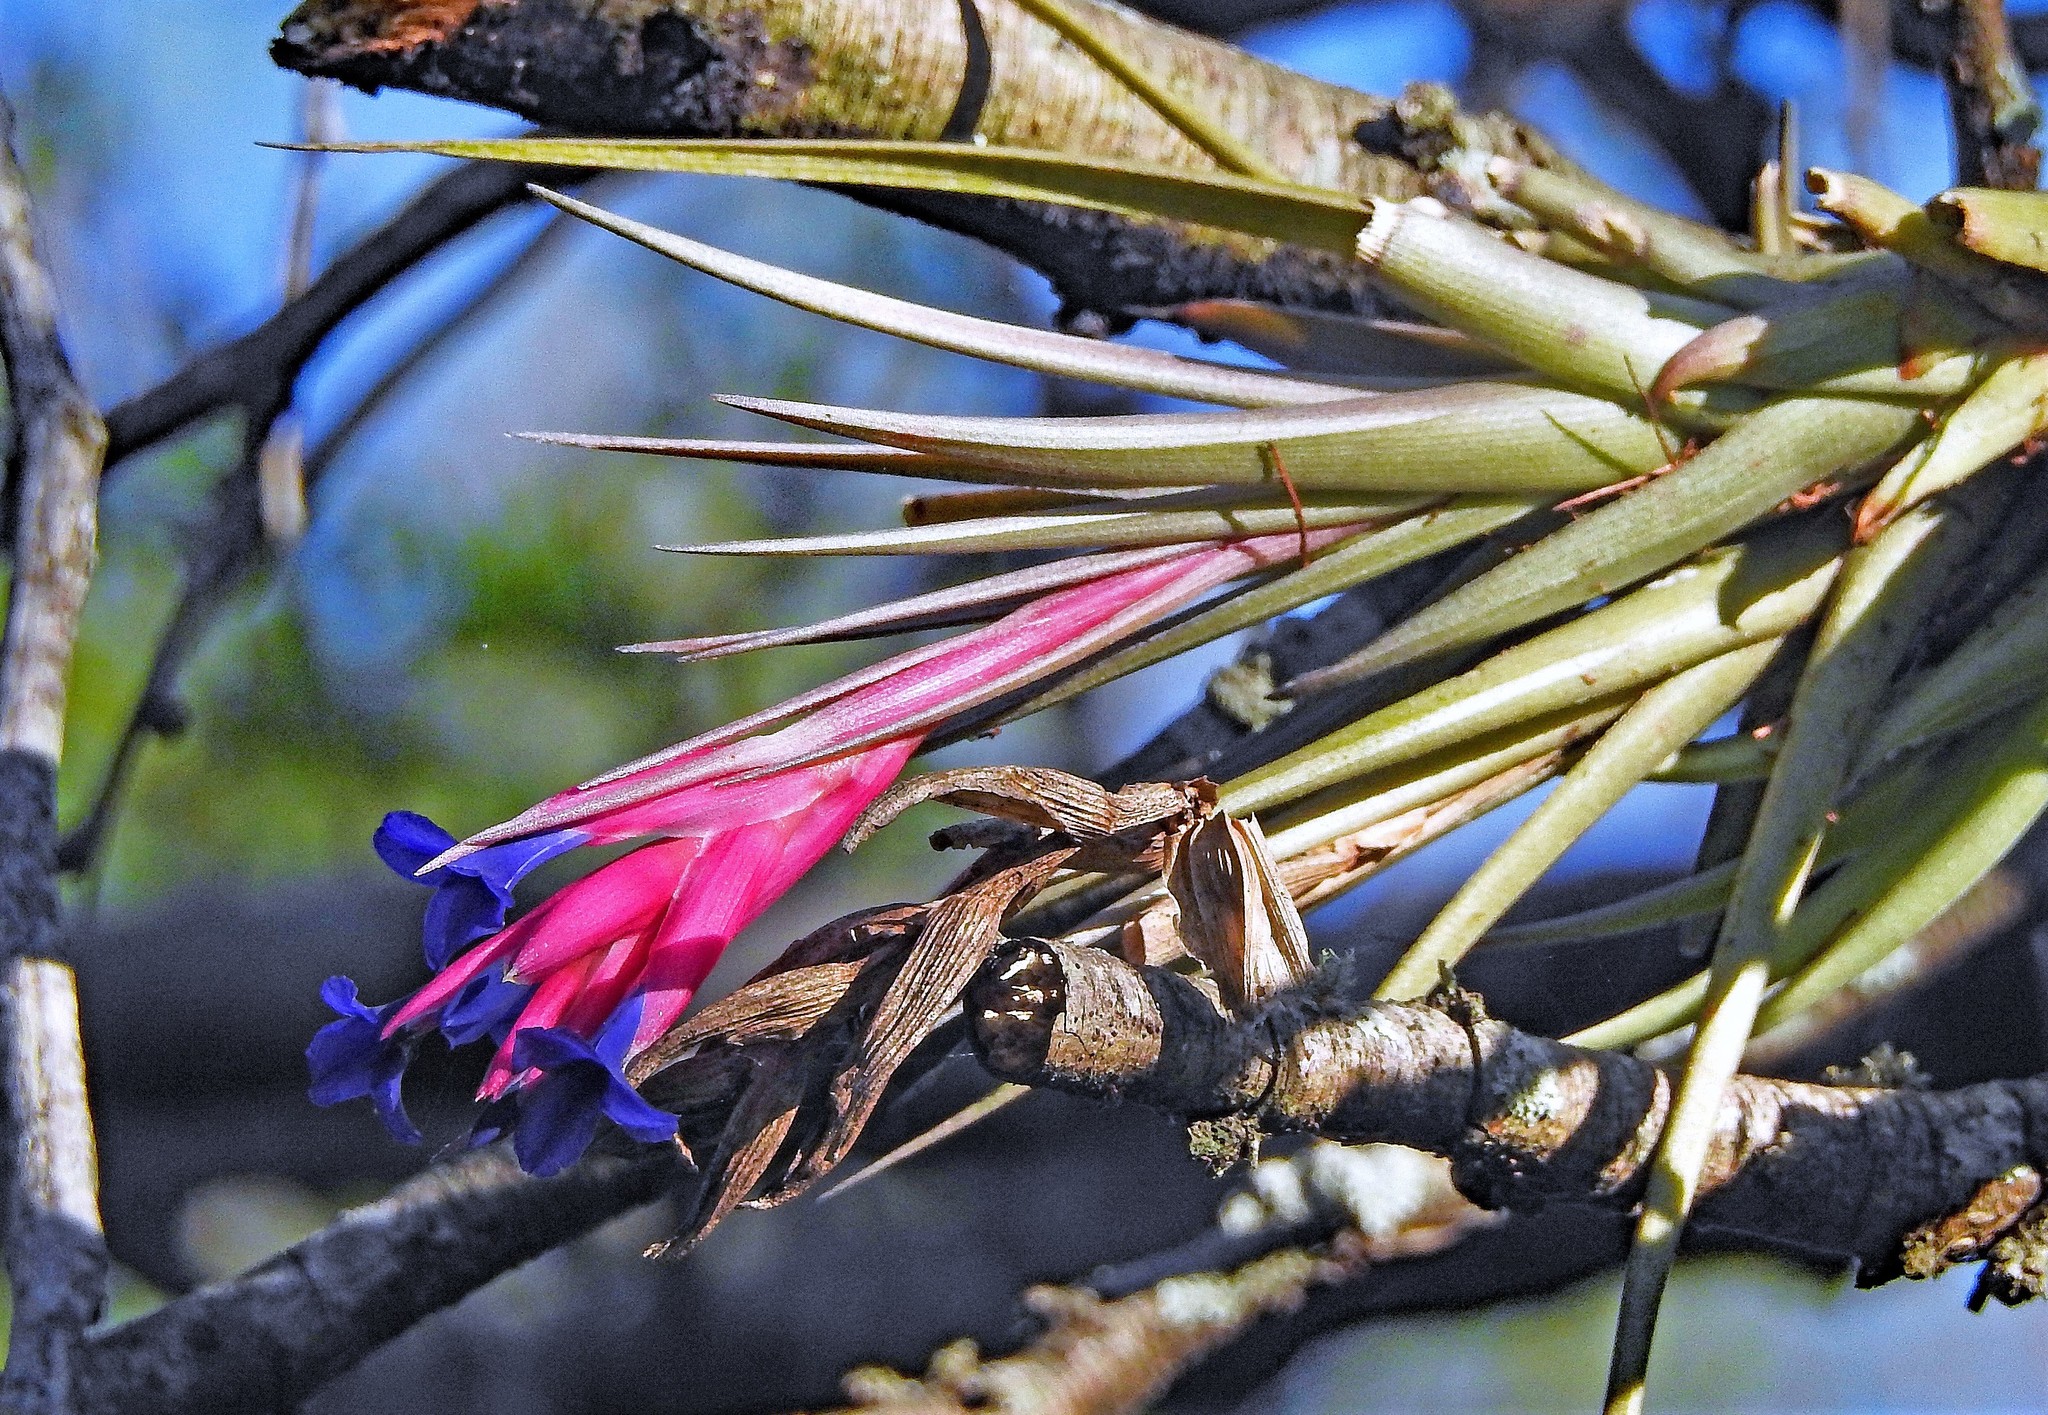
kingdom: Plantae
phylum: Tracheophyta
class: Liliopsida
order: Poales
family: Bromeliaceae
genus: Tillandsia
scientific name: Tillandsia aeranthos
